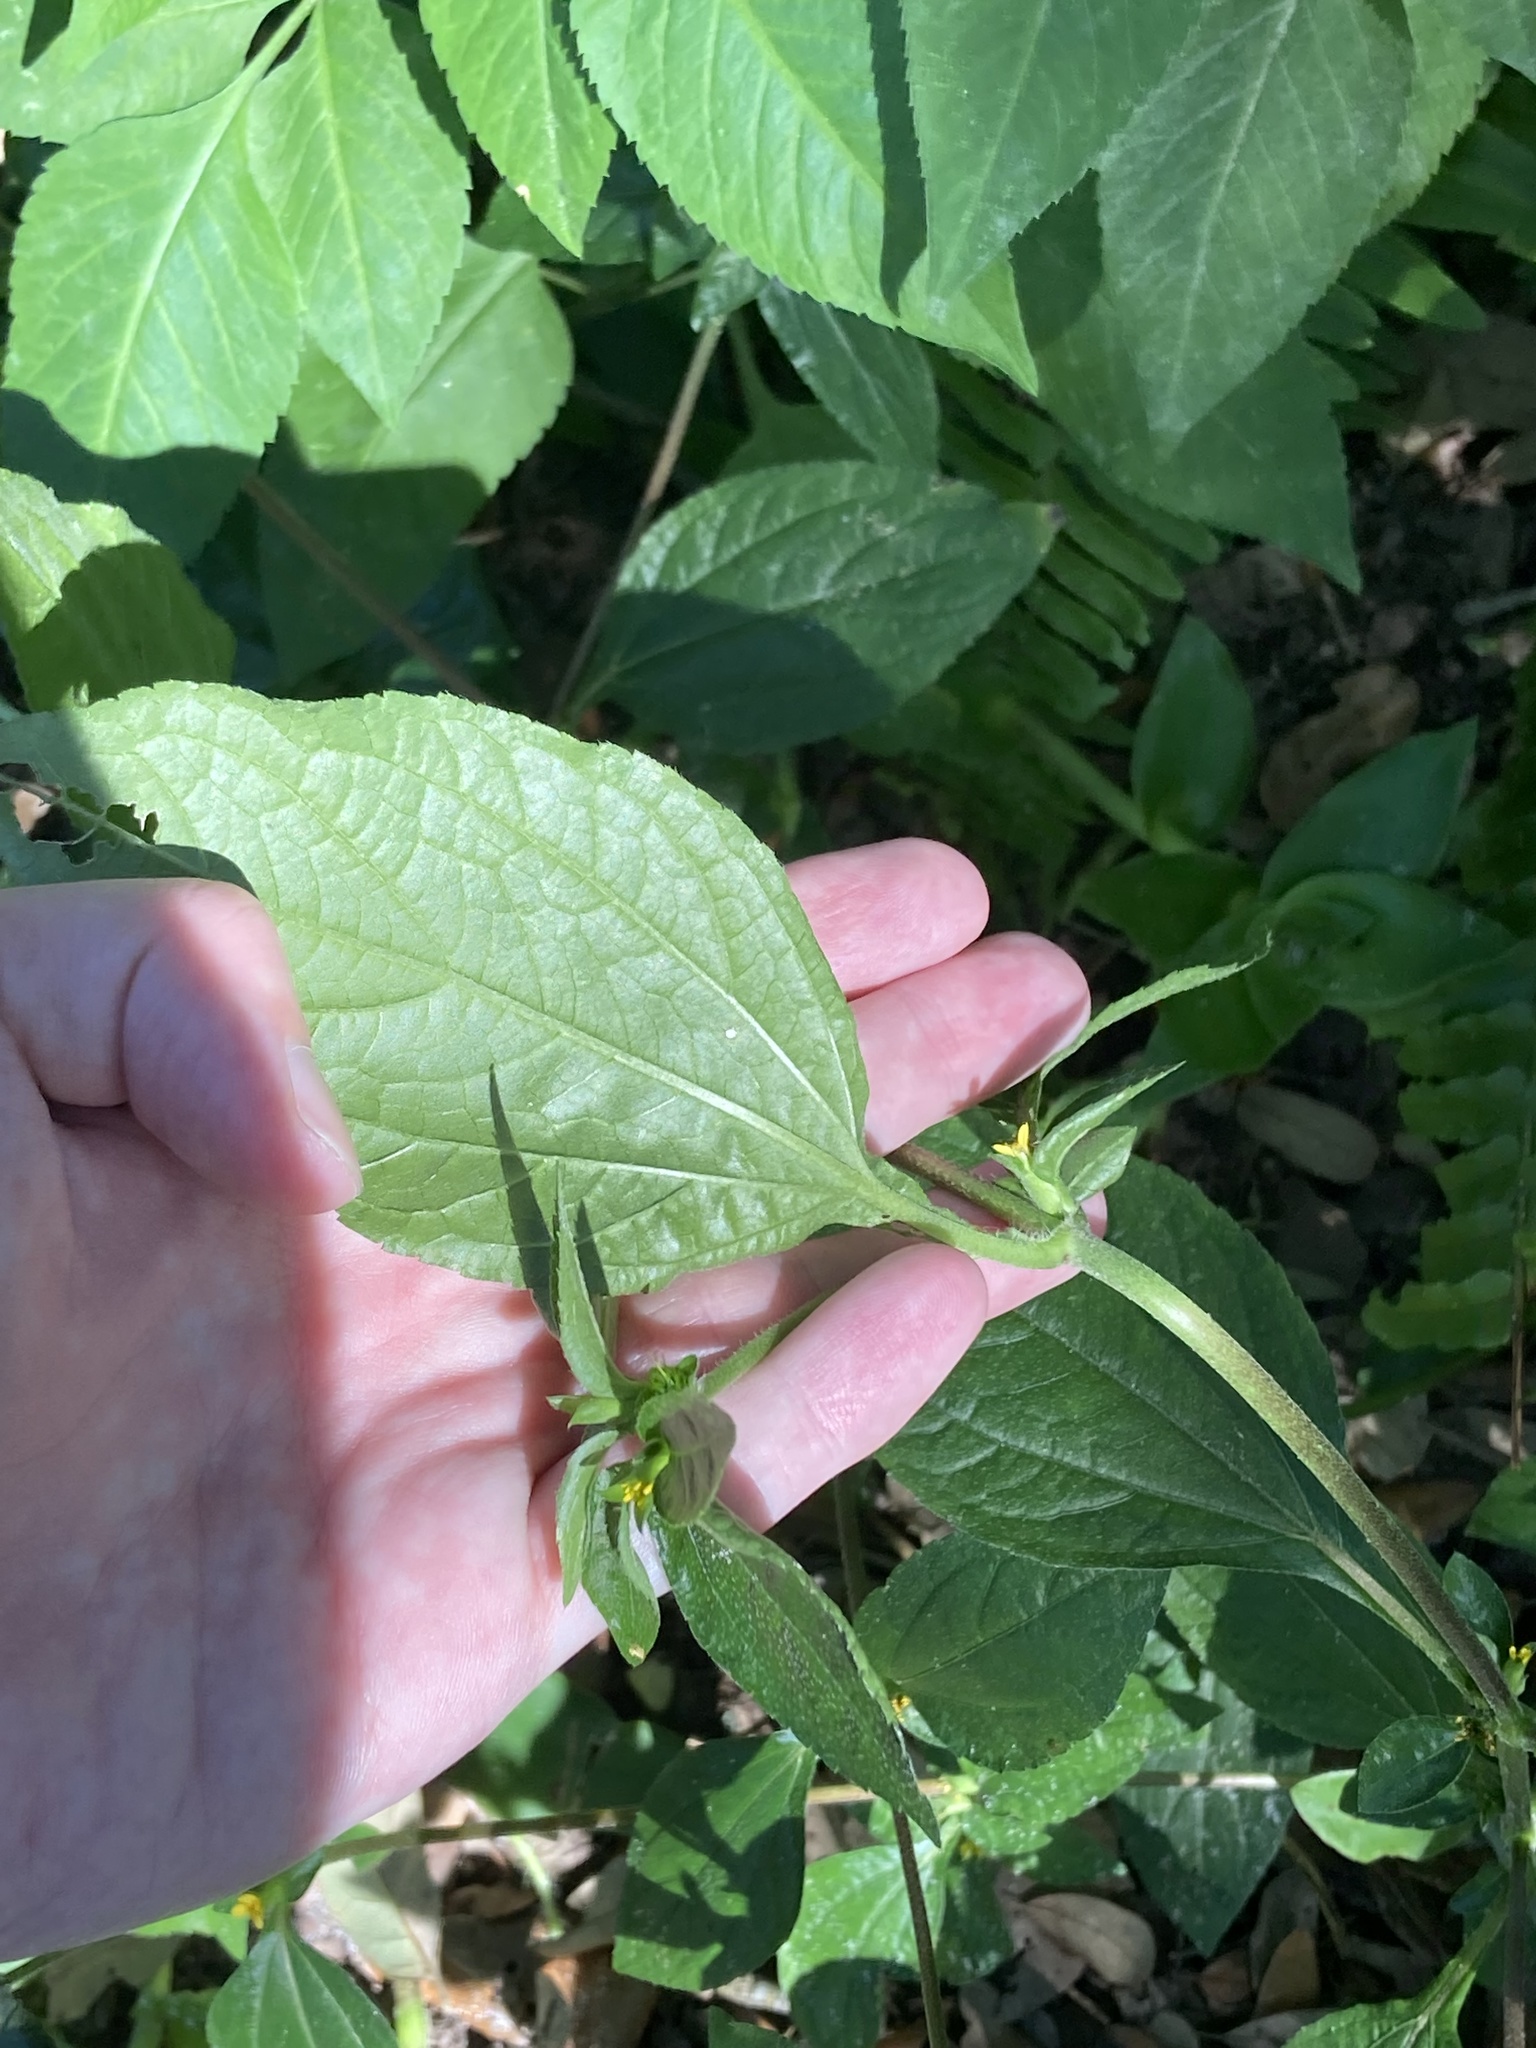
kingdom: Plantae
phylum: Tracheophyta
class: Magnoliopsida
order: Asterales
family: Asteraceae
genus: Synedrella
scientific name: Synedrella nodiflora
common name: Nodeweed
